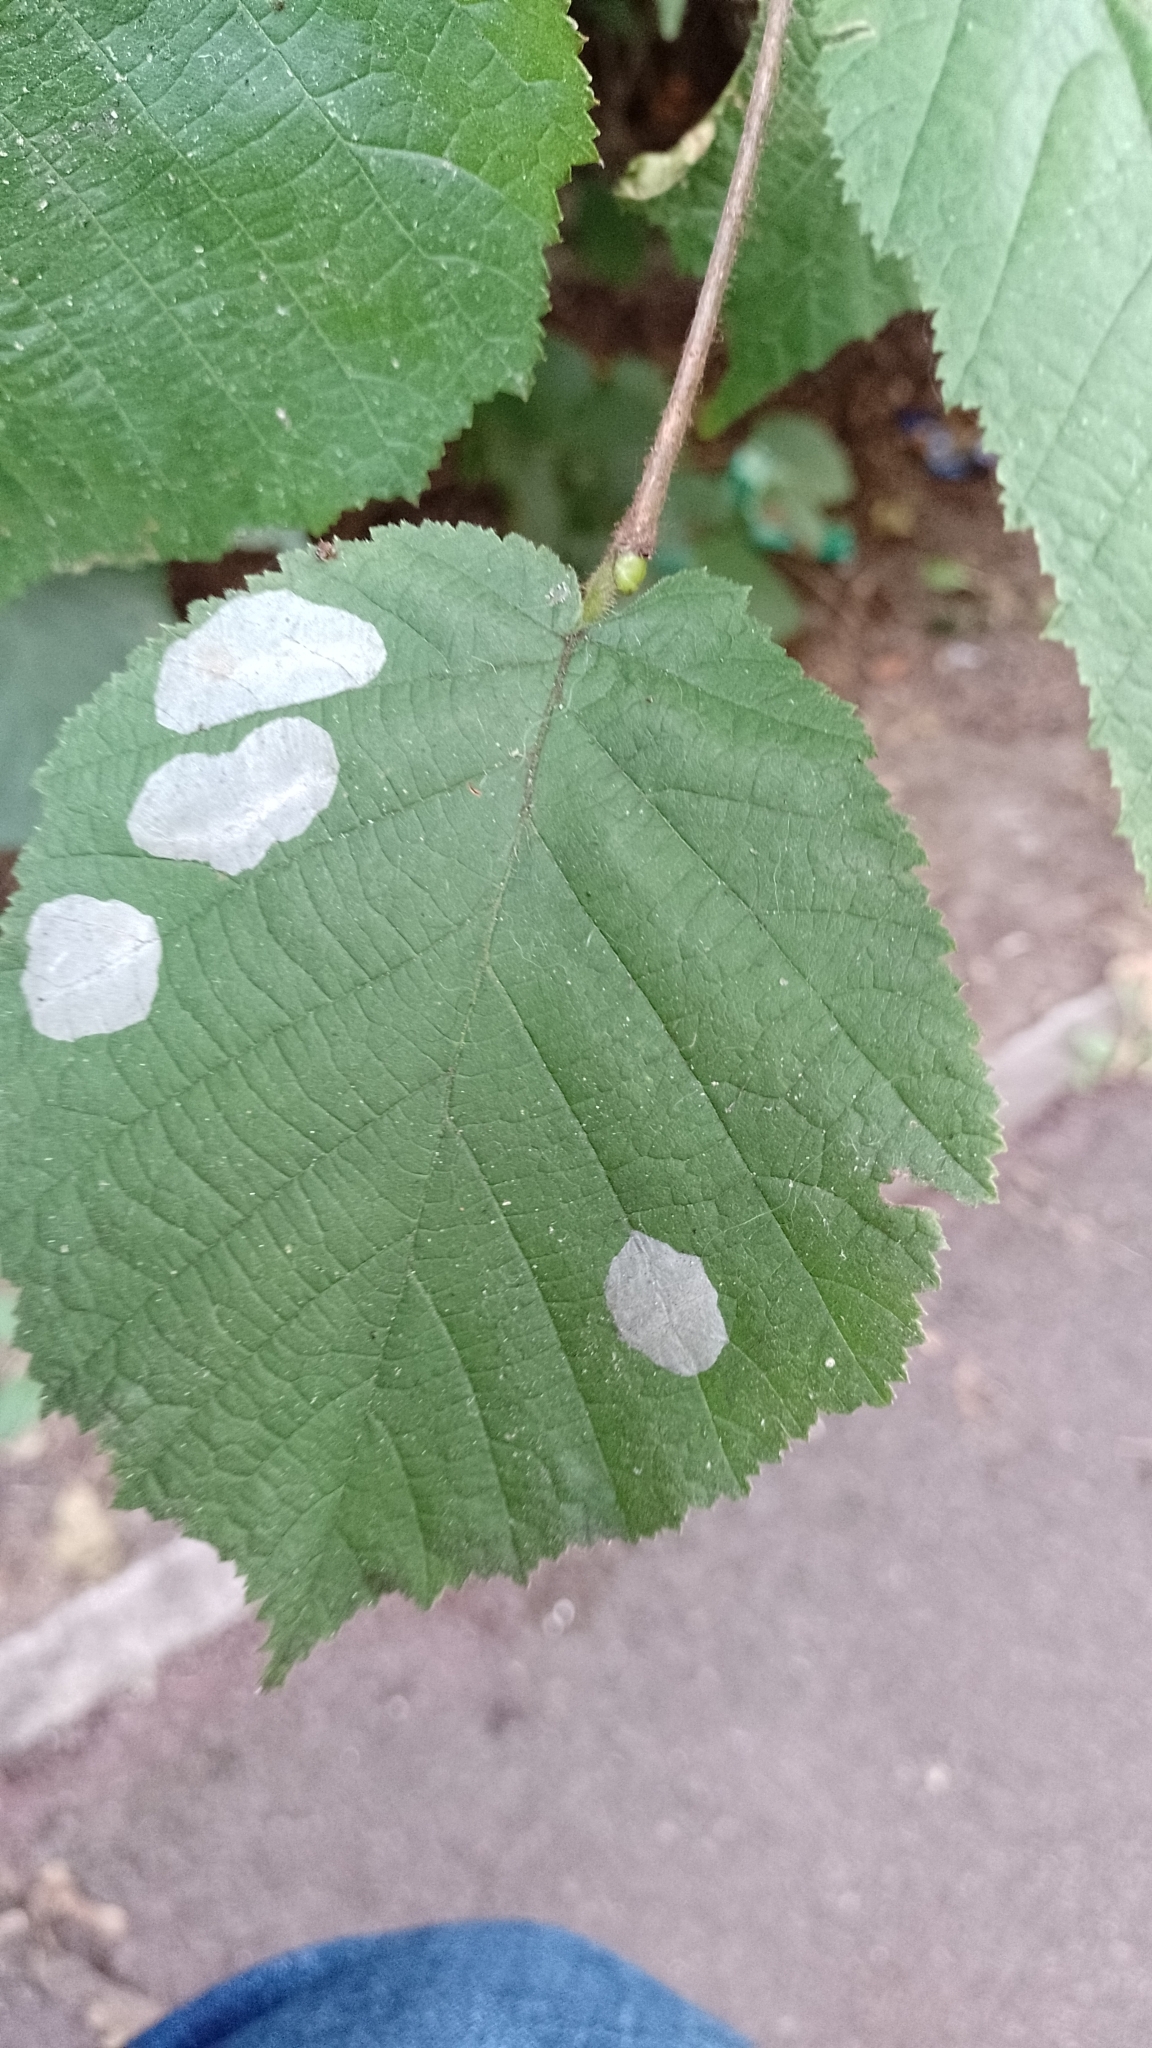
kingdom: Animalia
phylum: Arthropoda
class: Insecta
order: Lepidoptera
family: Gracillariidae
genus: Phyllonorycter
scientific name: Phyllonorycter coryli
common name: Nut-leaf blister moth
